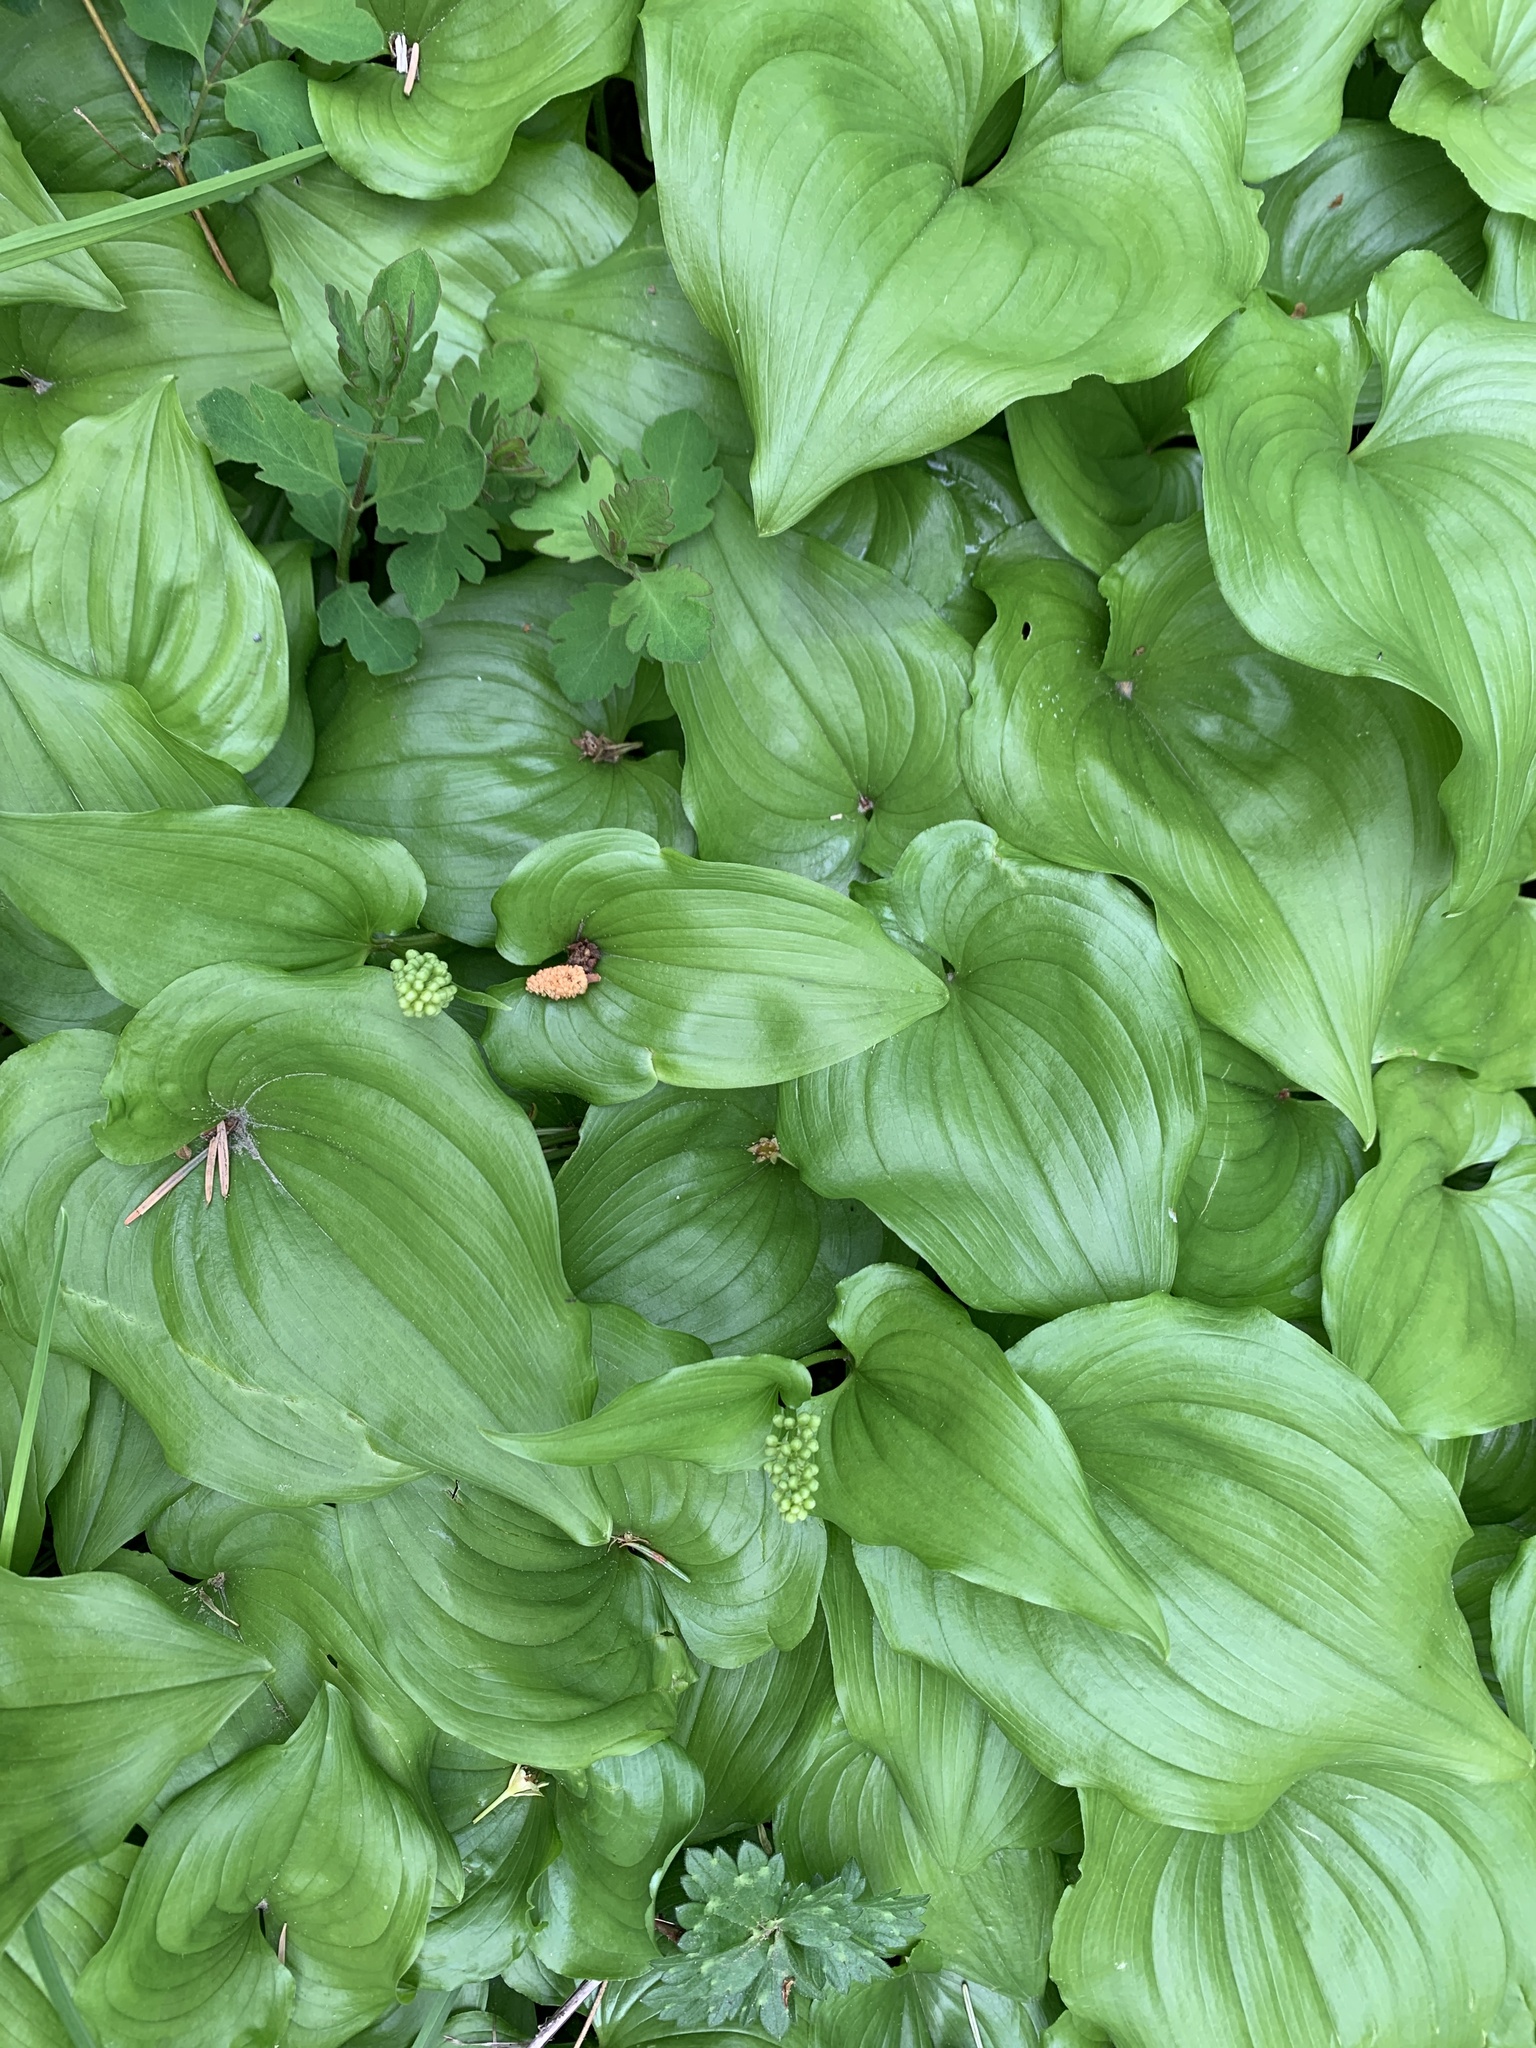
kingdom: Plantae
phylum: Tracheophyta
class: Liliopsida
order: Asparagales
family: Asparagaceae
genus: Maianthemum
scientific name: Maianthemum dilatatum
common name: False lily-of-the-valley
